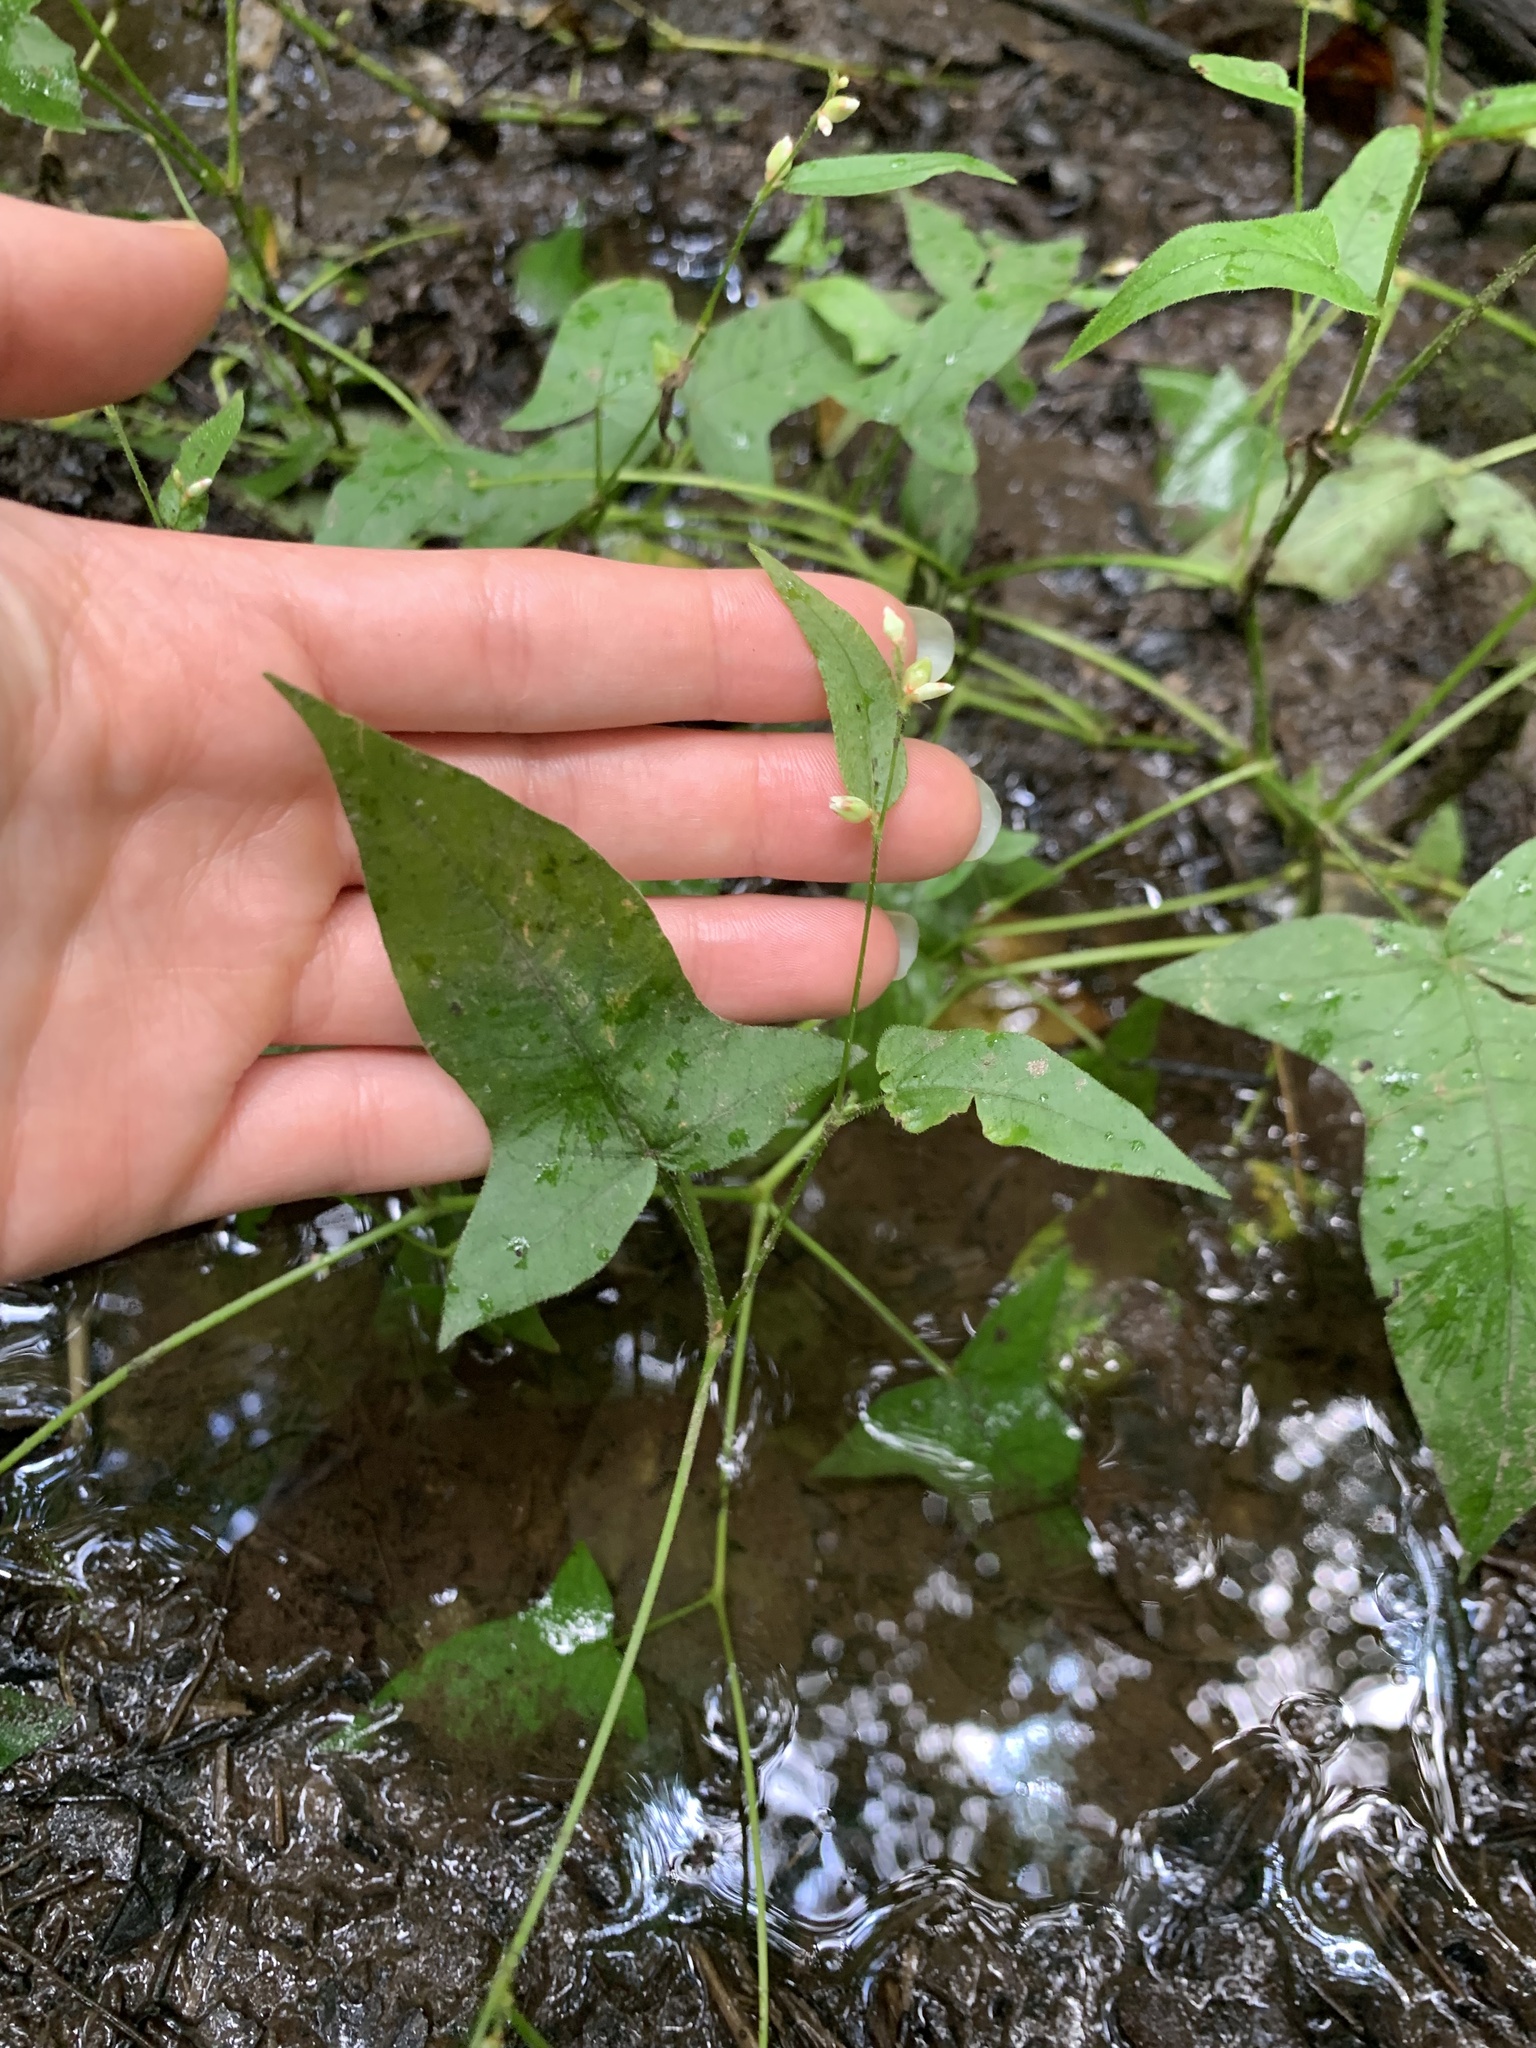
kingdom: Plantae
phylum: Tracheophyta
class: Magnoliopsida
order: Caryophyllales
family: Polygonaceae
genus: Persicaria
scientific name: Persicaria arifolia
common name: Halberd-leaved tear-thumb
